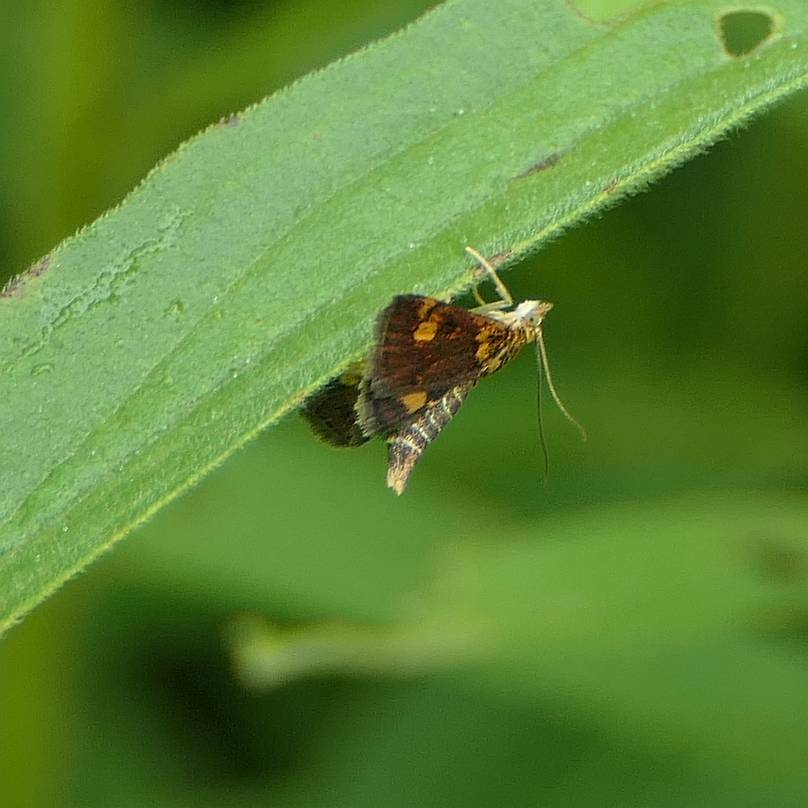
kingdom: Animalia
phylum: Arthropoda
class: Insecta
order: Lepidoptera
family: Crambidae
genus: Pyrausta
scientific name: Pyrausta orphisalis
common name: Orange mint moth
